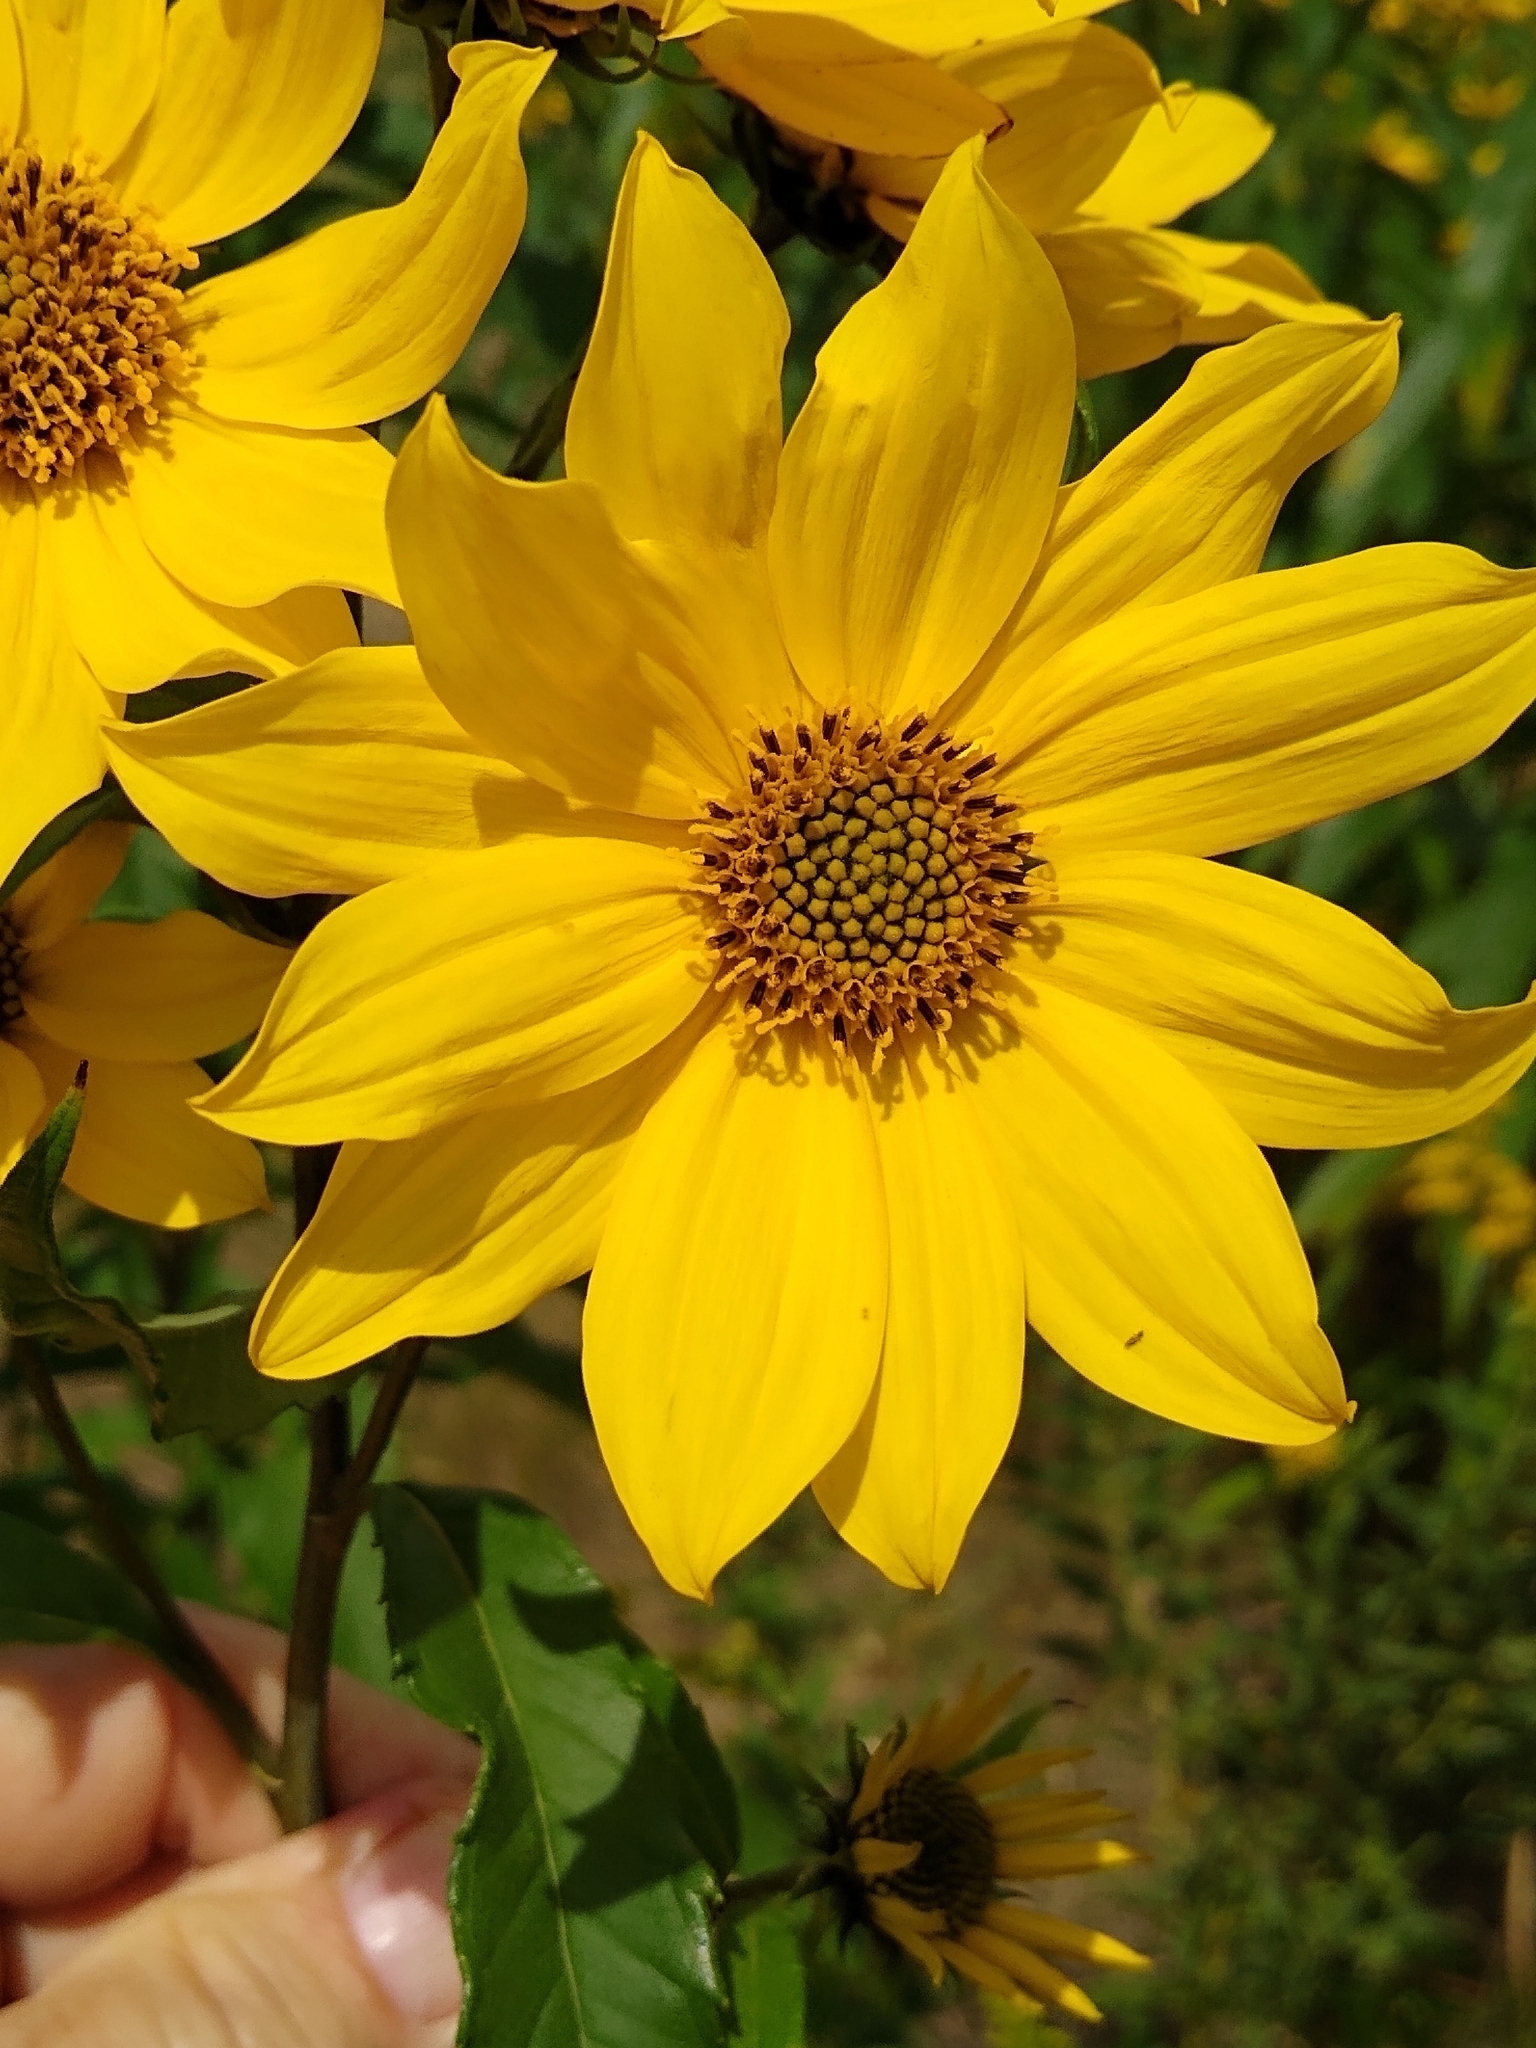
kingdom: Plantae
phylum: Tracheophyta
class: Magnoliopsida
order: Asterales
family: Asteraceae
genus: Helianthus
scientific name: Helianthus giganteus
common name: Giant sunflower
